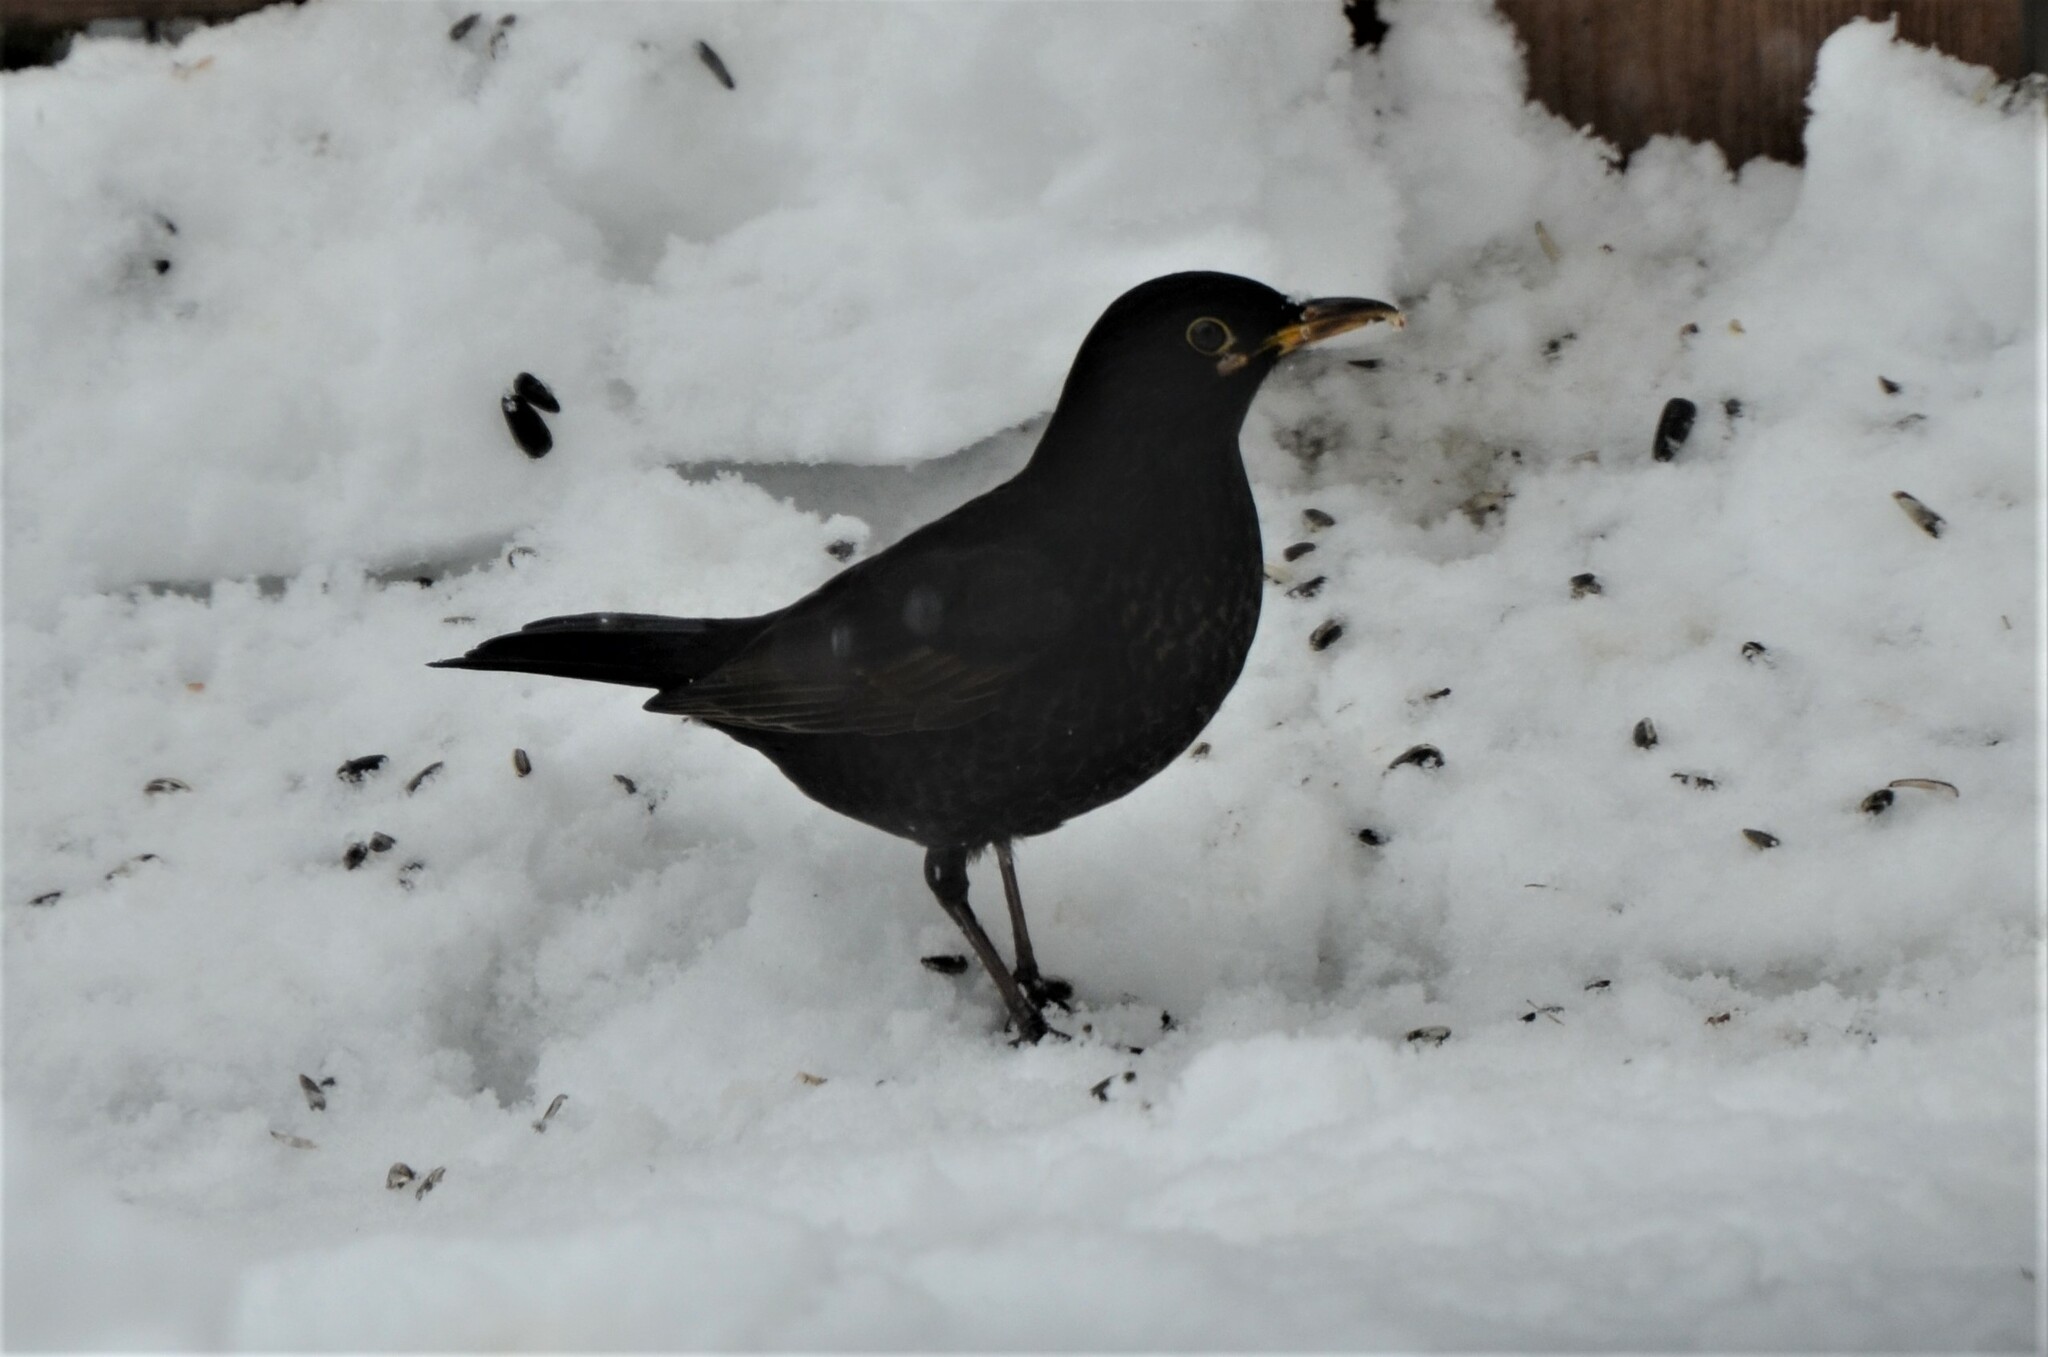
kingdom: Animalia
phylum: Chordata
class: Aves
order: Passeriformes
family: Turdidae
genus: Turdus
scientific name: Turdus merula
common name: Common blackbird
